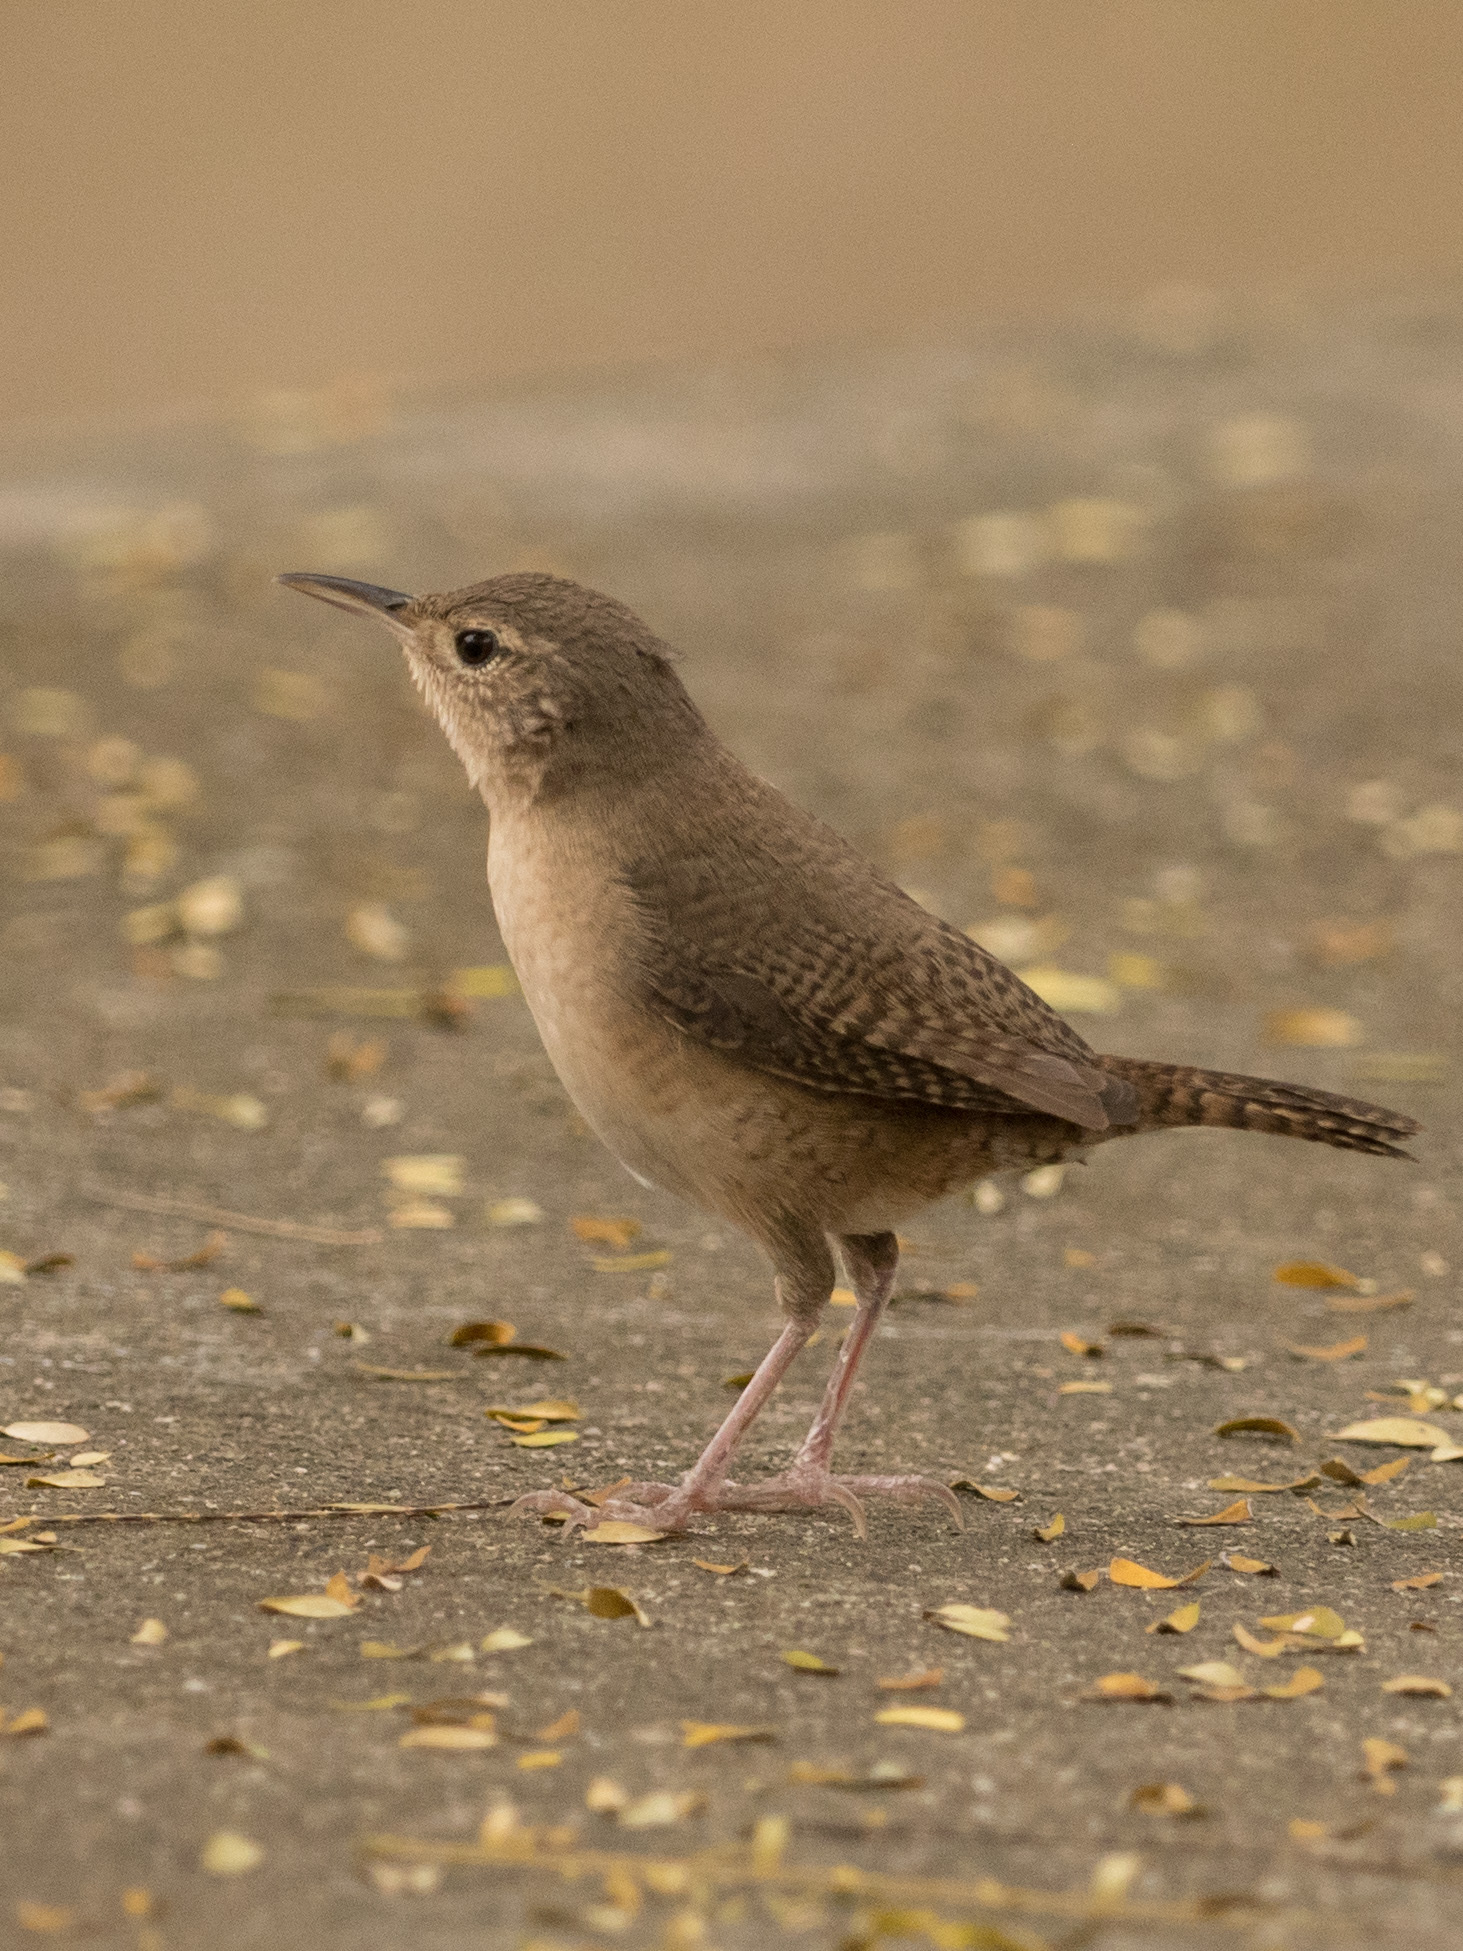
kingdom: Animalia
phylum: Chordata
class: Aves
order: Passeriformes
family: Troglodytidae
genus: Troglodytes
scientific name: Troglodytes aedon
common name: House wren
